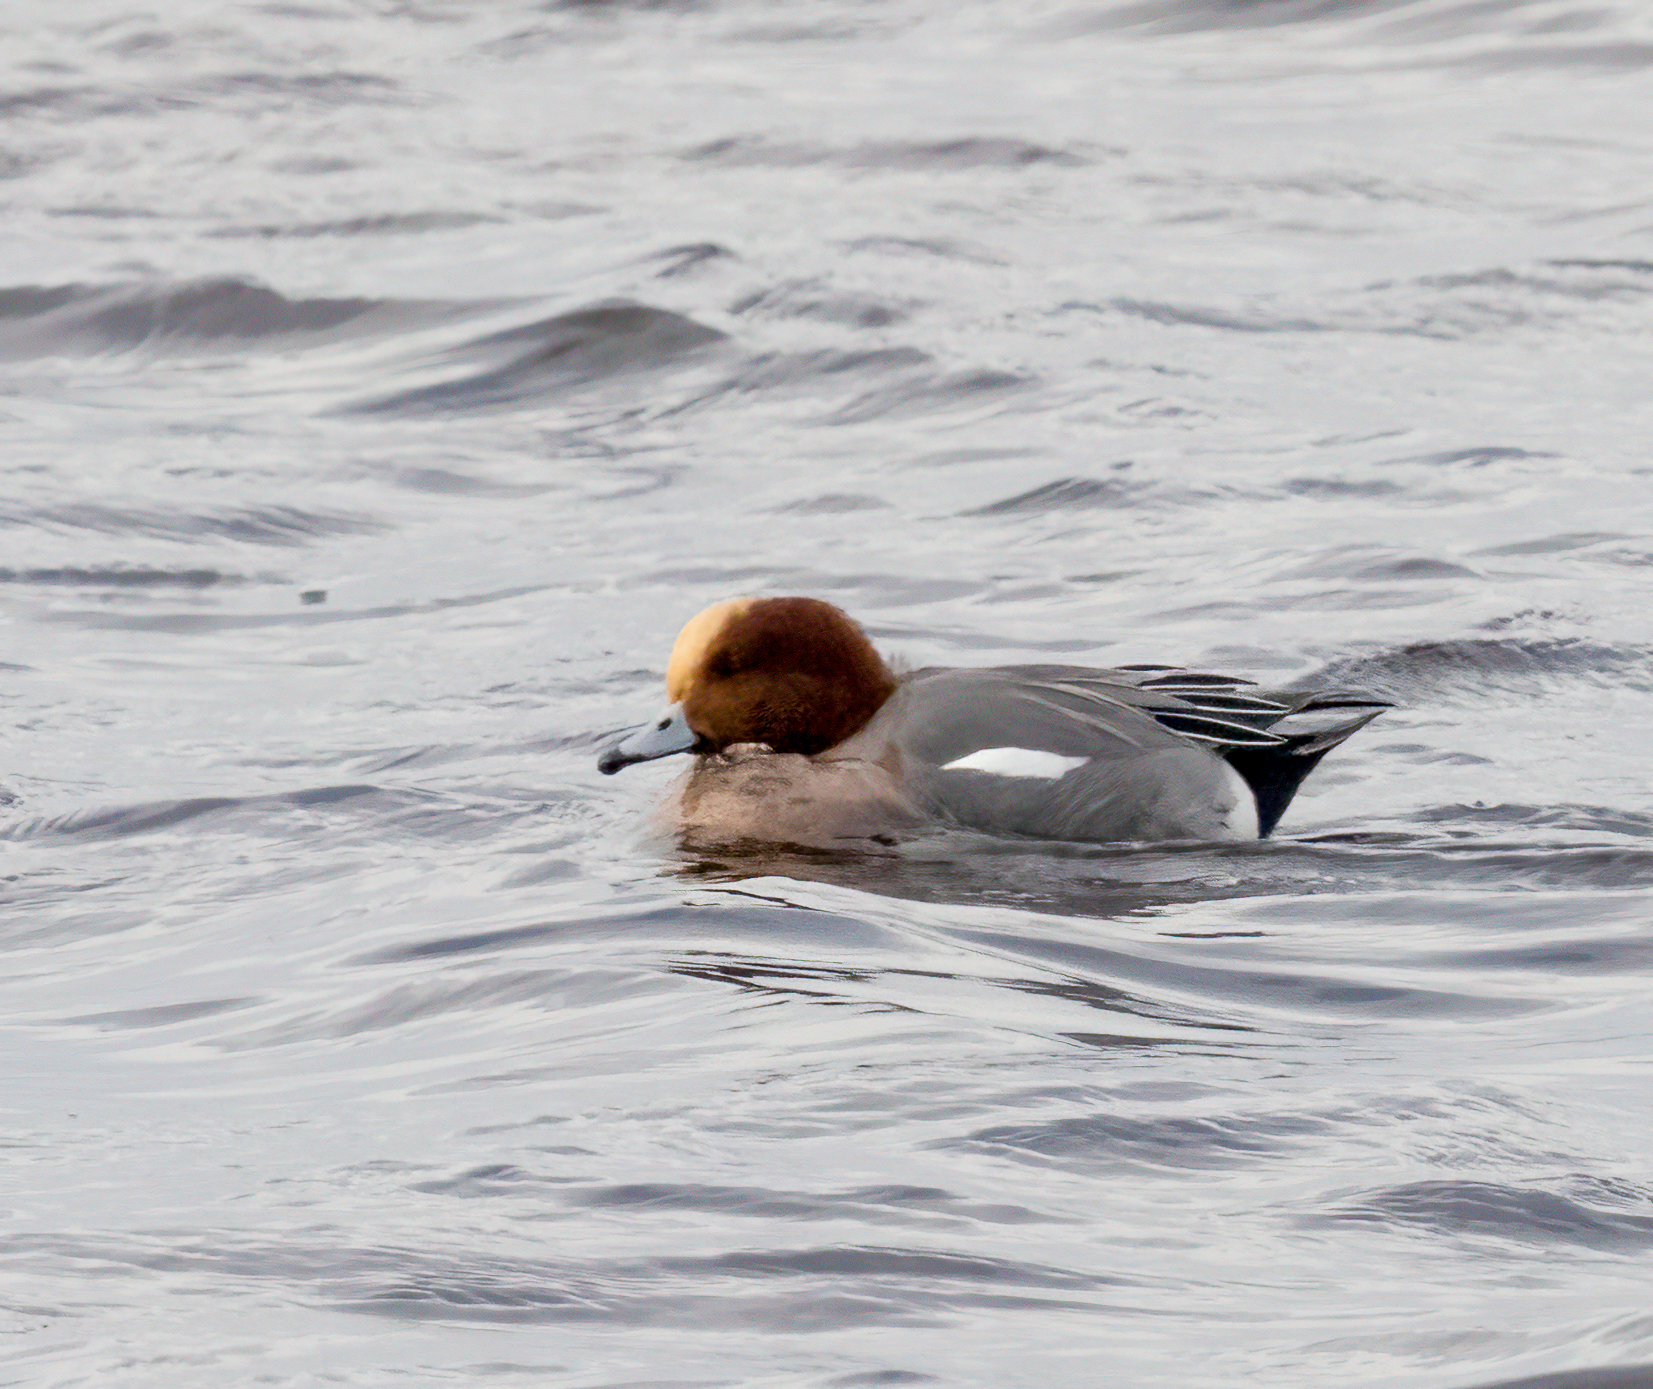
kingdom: Animalia
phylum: Chordata
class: Aves
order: Anseriformes
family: Anatidae
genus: Mareca
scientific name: Mareca penelope
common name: Eurasian wigeon
